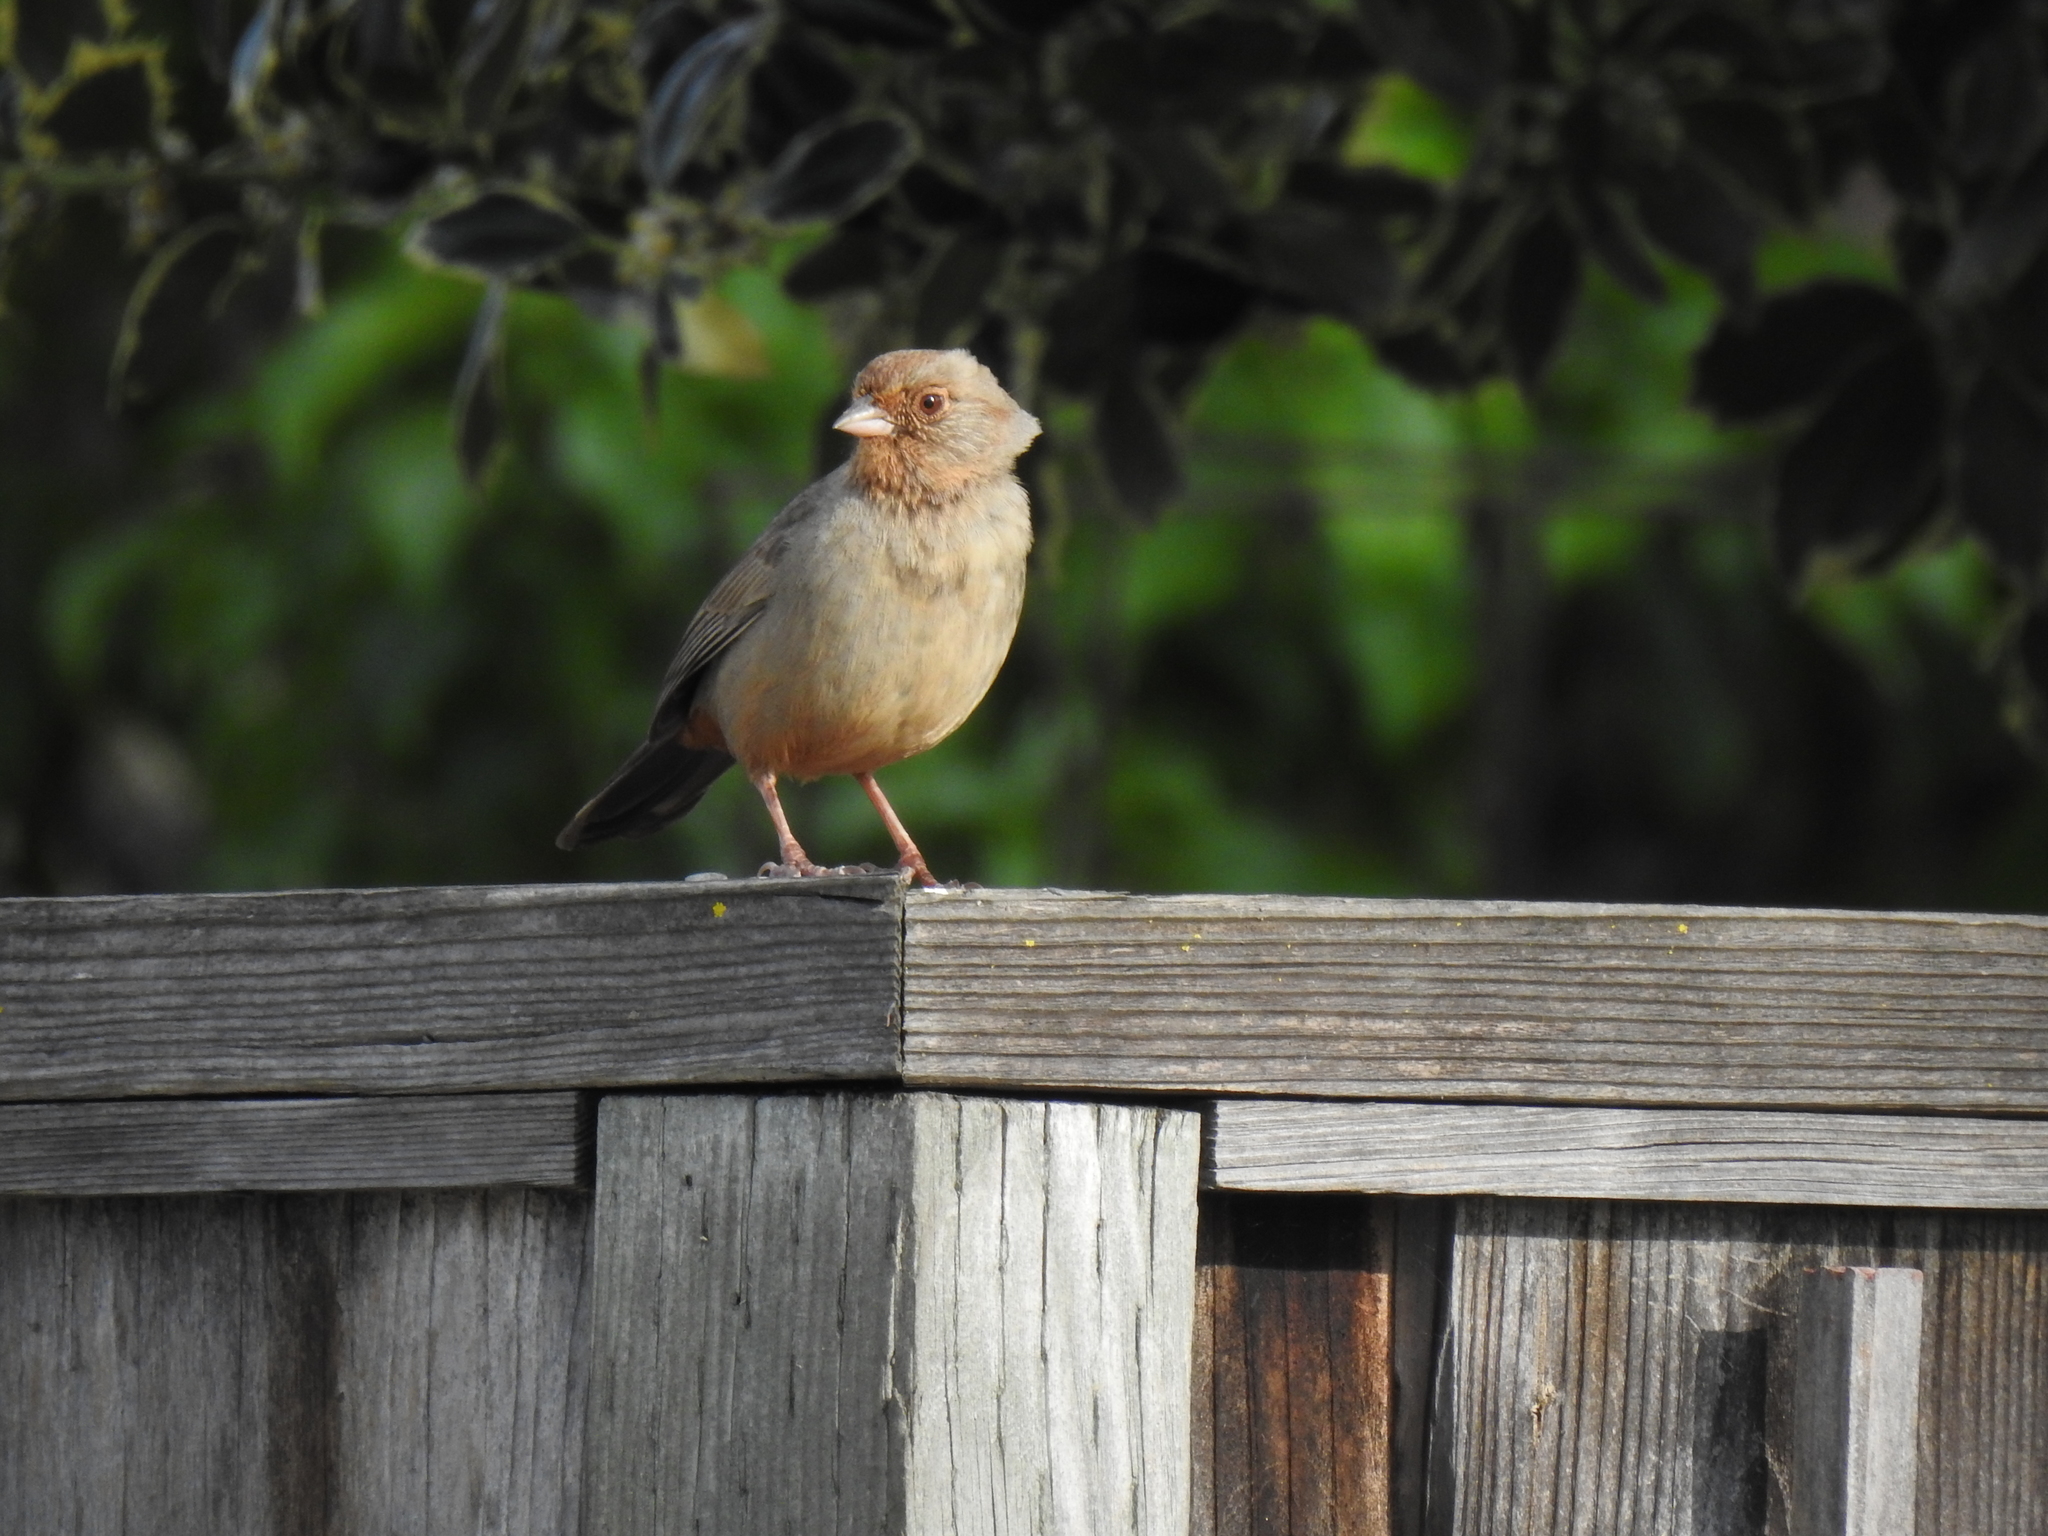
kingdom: Animalia
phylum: Chordata
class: Aves
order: Passeriformes
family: Passerellidae
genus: Melozone
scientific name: Melozone crissalis
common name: California towhee
